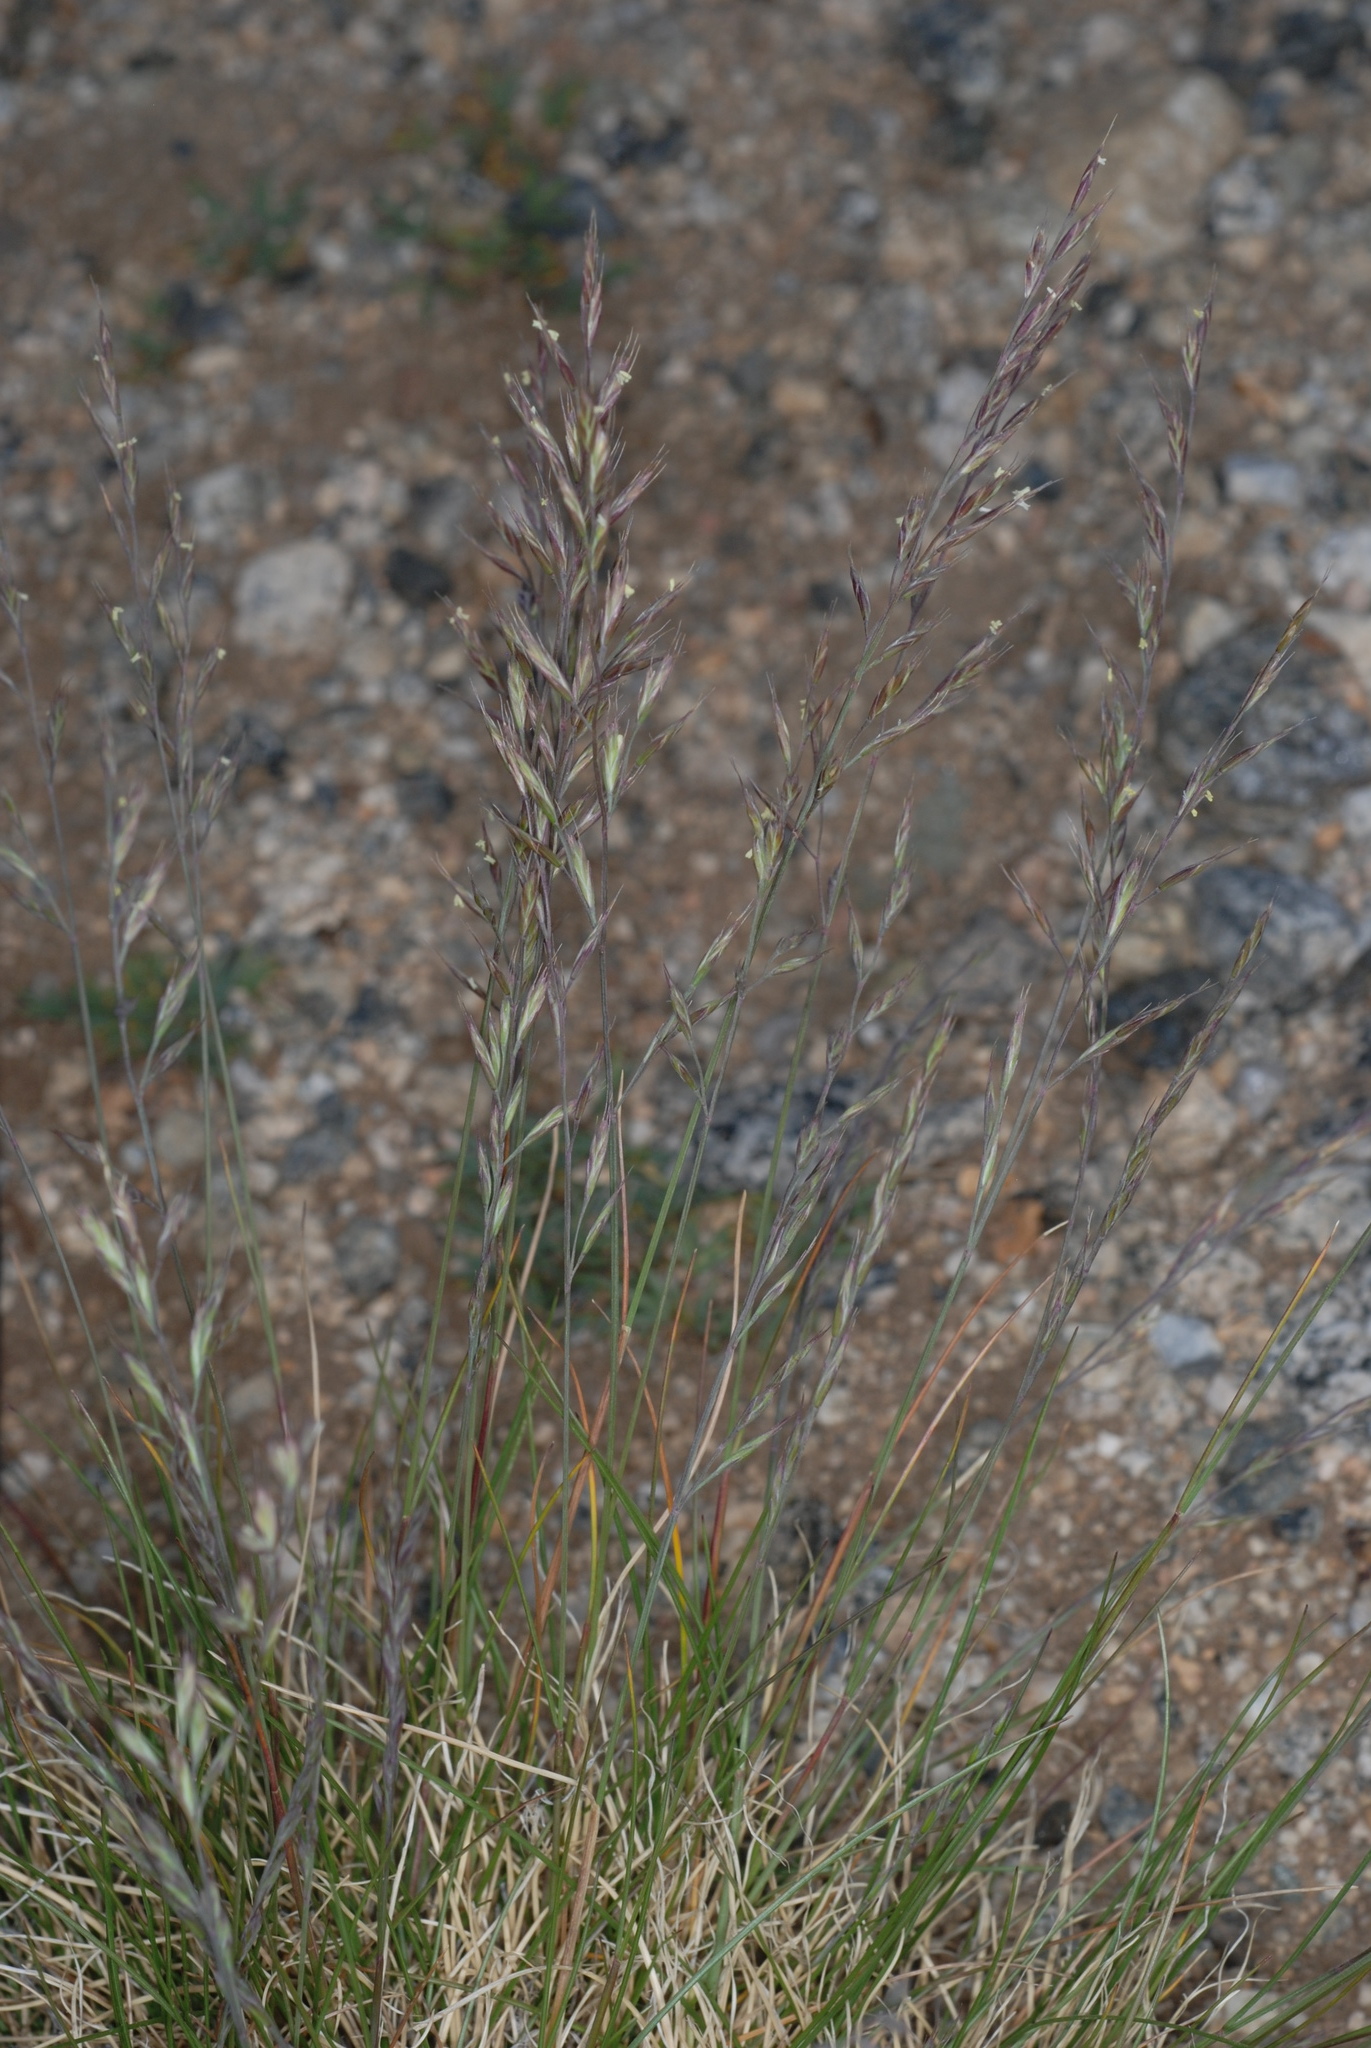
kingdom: Plantae
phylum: Tracheophyta
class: Liliopsida
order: Poales
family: Poaceae
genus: Festuca
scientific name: Festuca brachyphylla
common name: Alpine fescue
